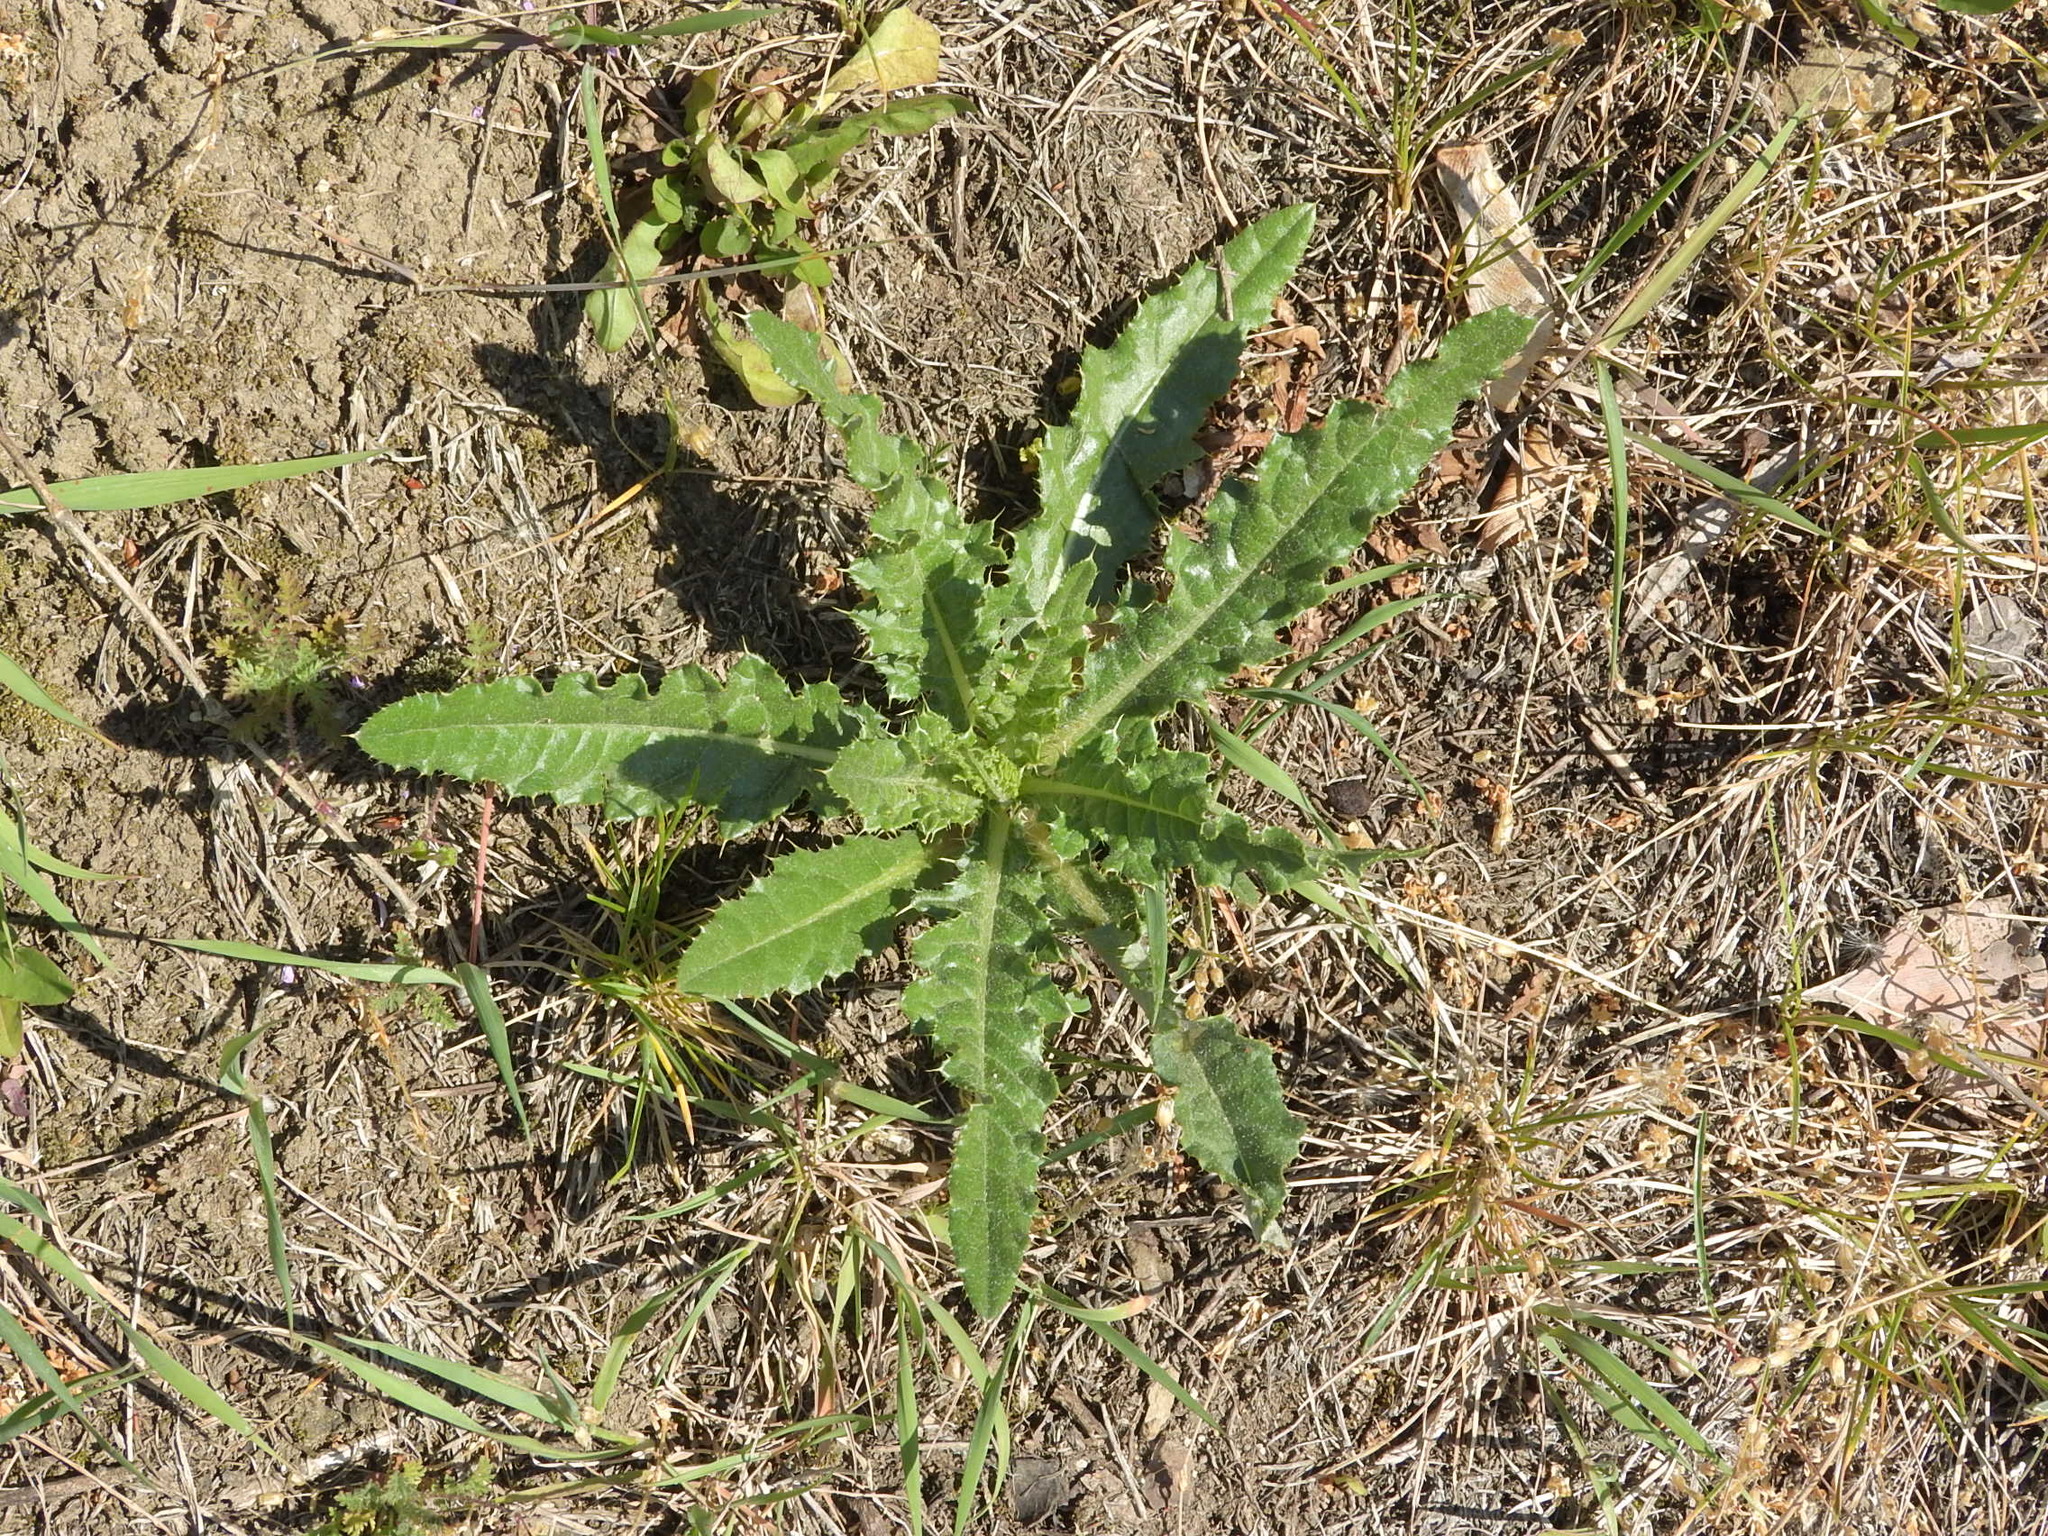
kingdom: Plantae
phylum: Tracheophyta
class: Magnoliopsida
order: Asterales
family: Asteraceae
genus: Cirsium
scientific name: Cirsium arvense
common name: Creeping thistle
